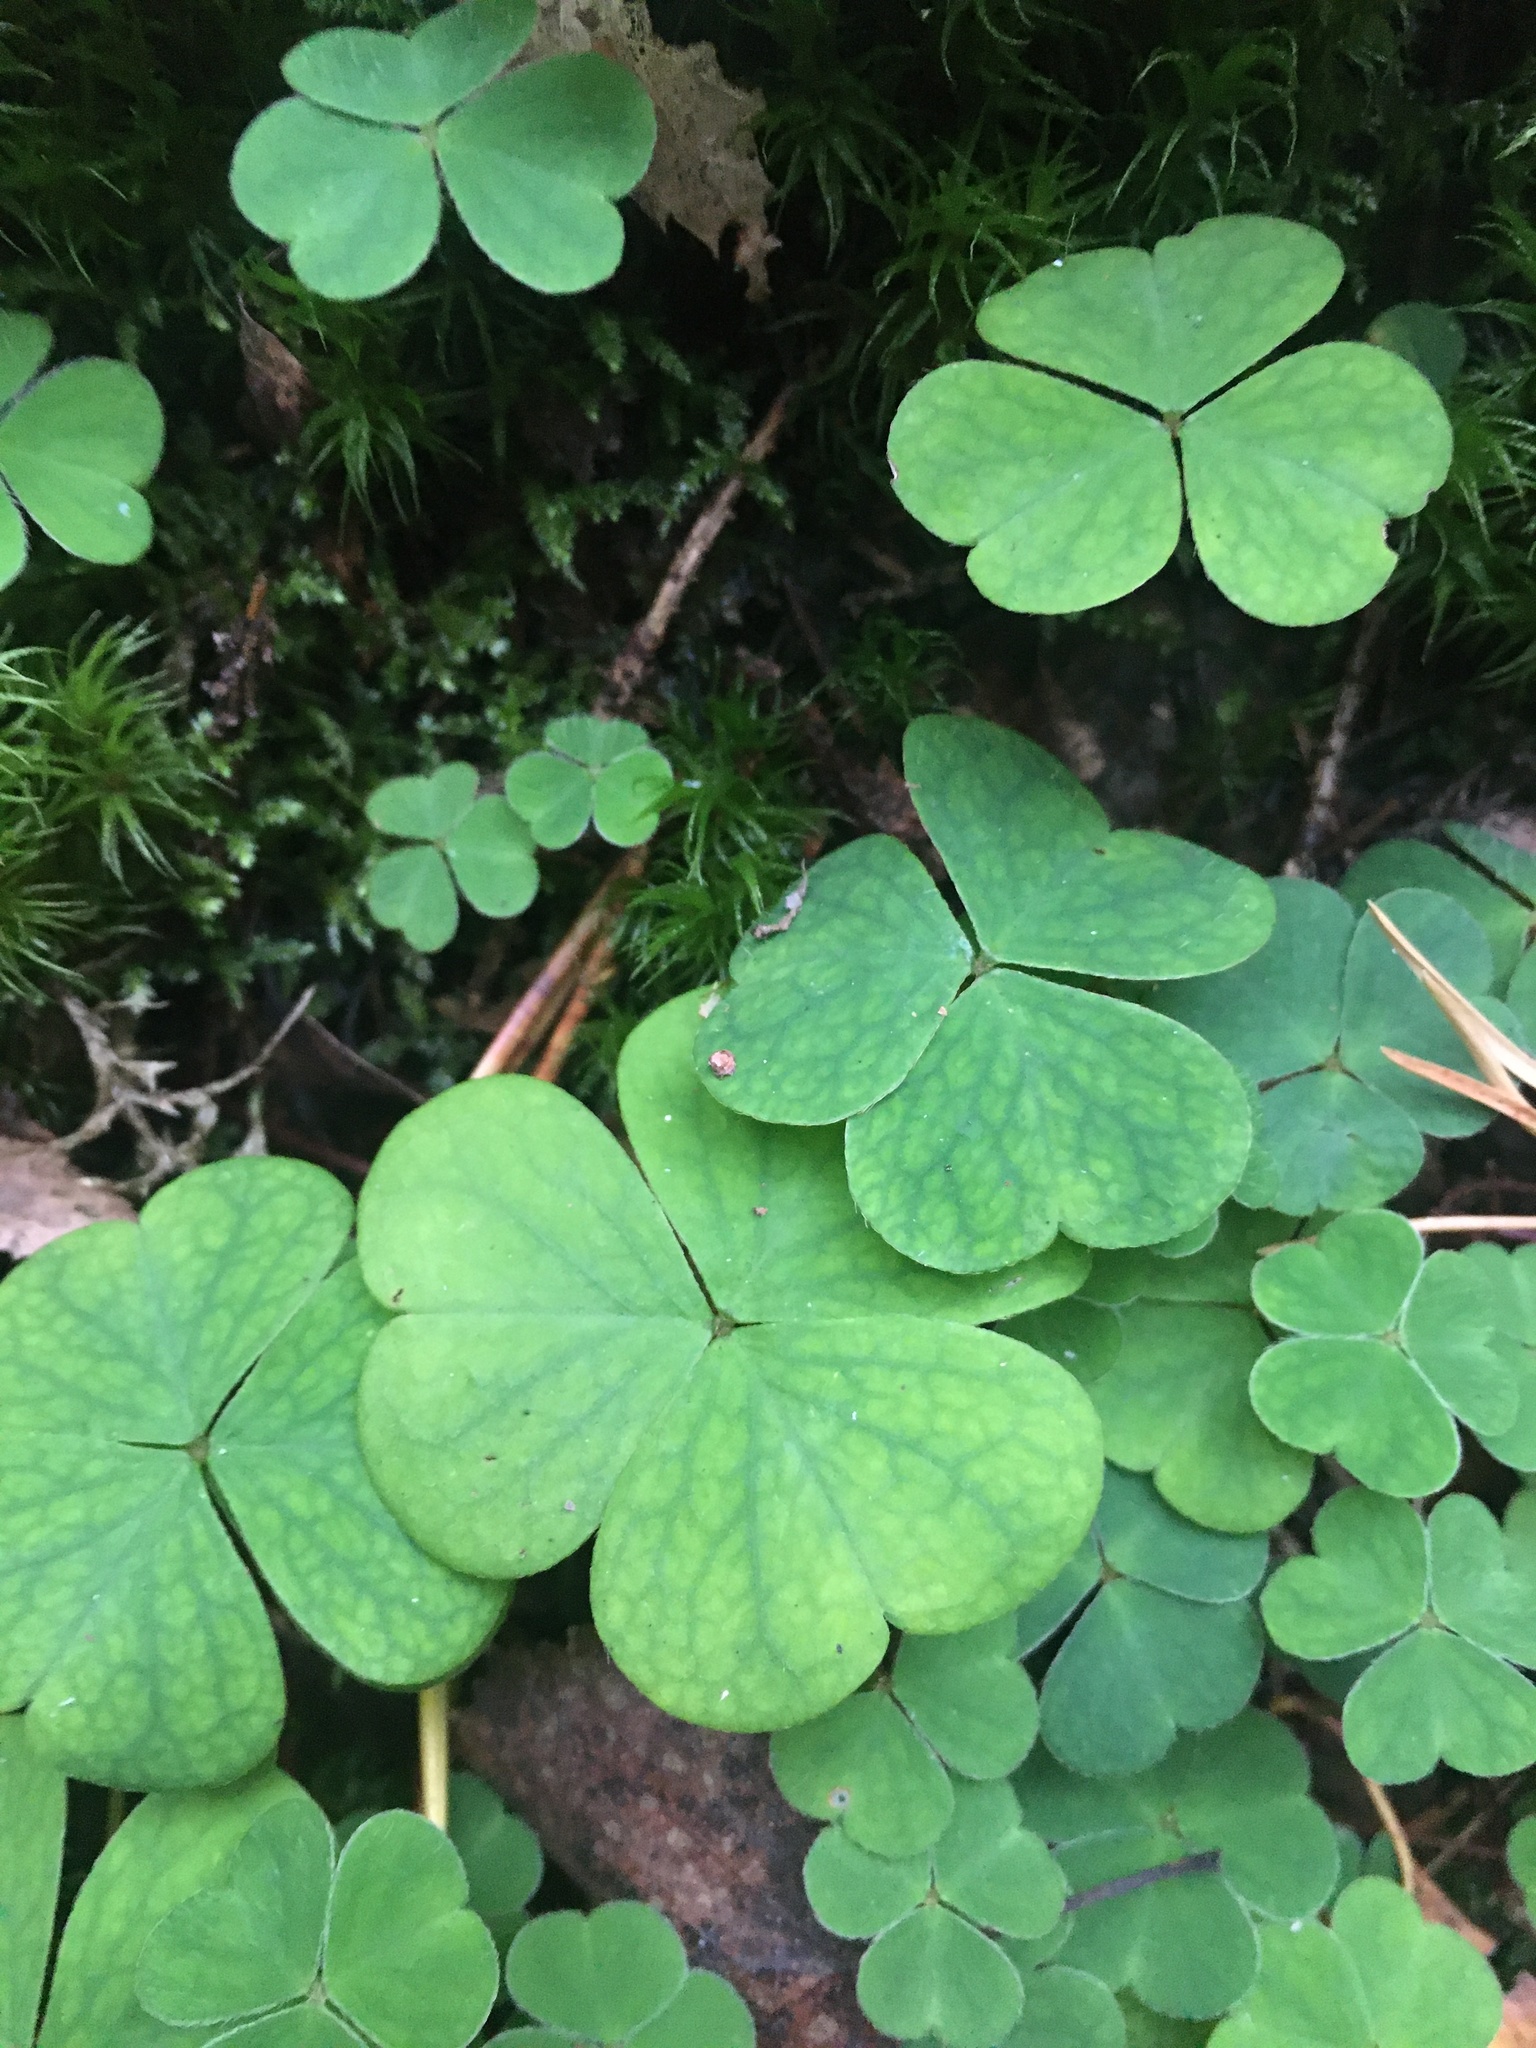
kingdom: Plantae
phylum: Tracheophyta
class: Magnoliopsida
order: Oxalidales
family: Oxalidaceae
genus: Oxalis
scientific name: Oxalis acetosella
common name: Wood-sorrel
